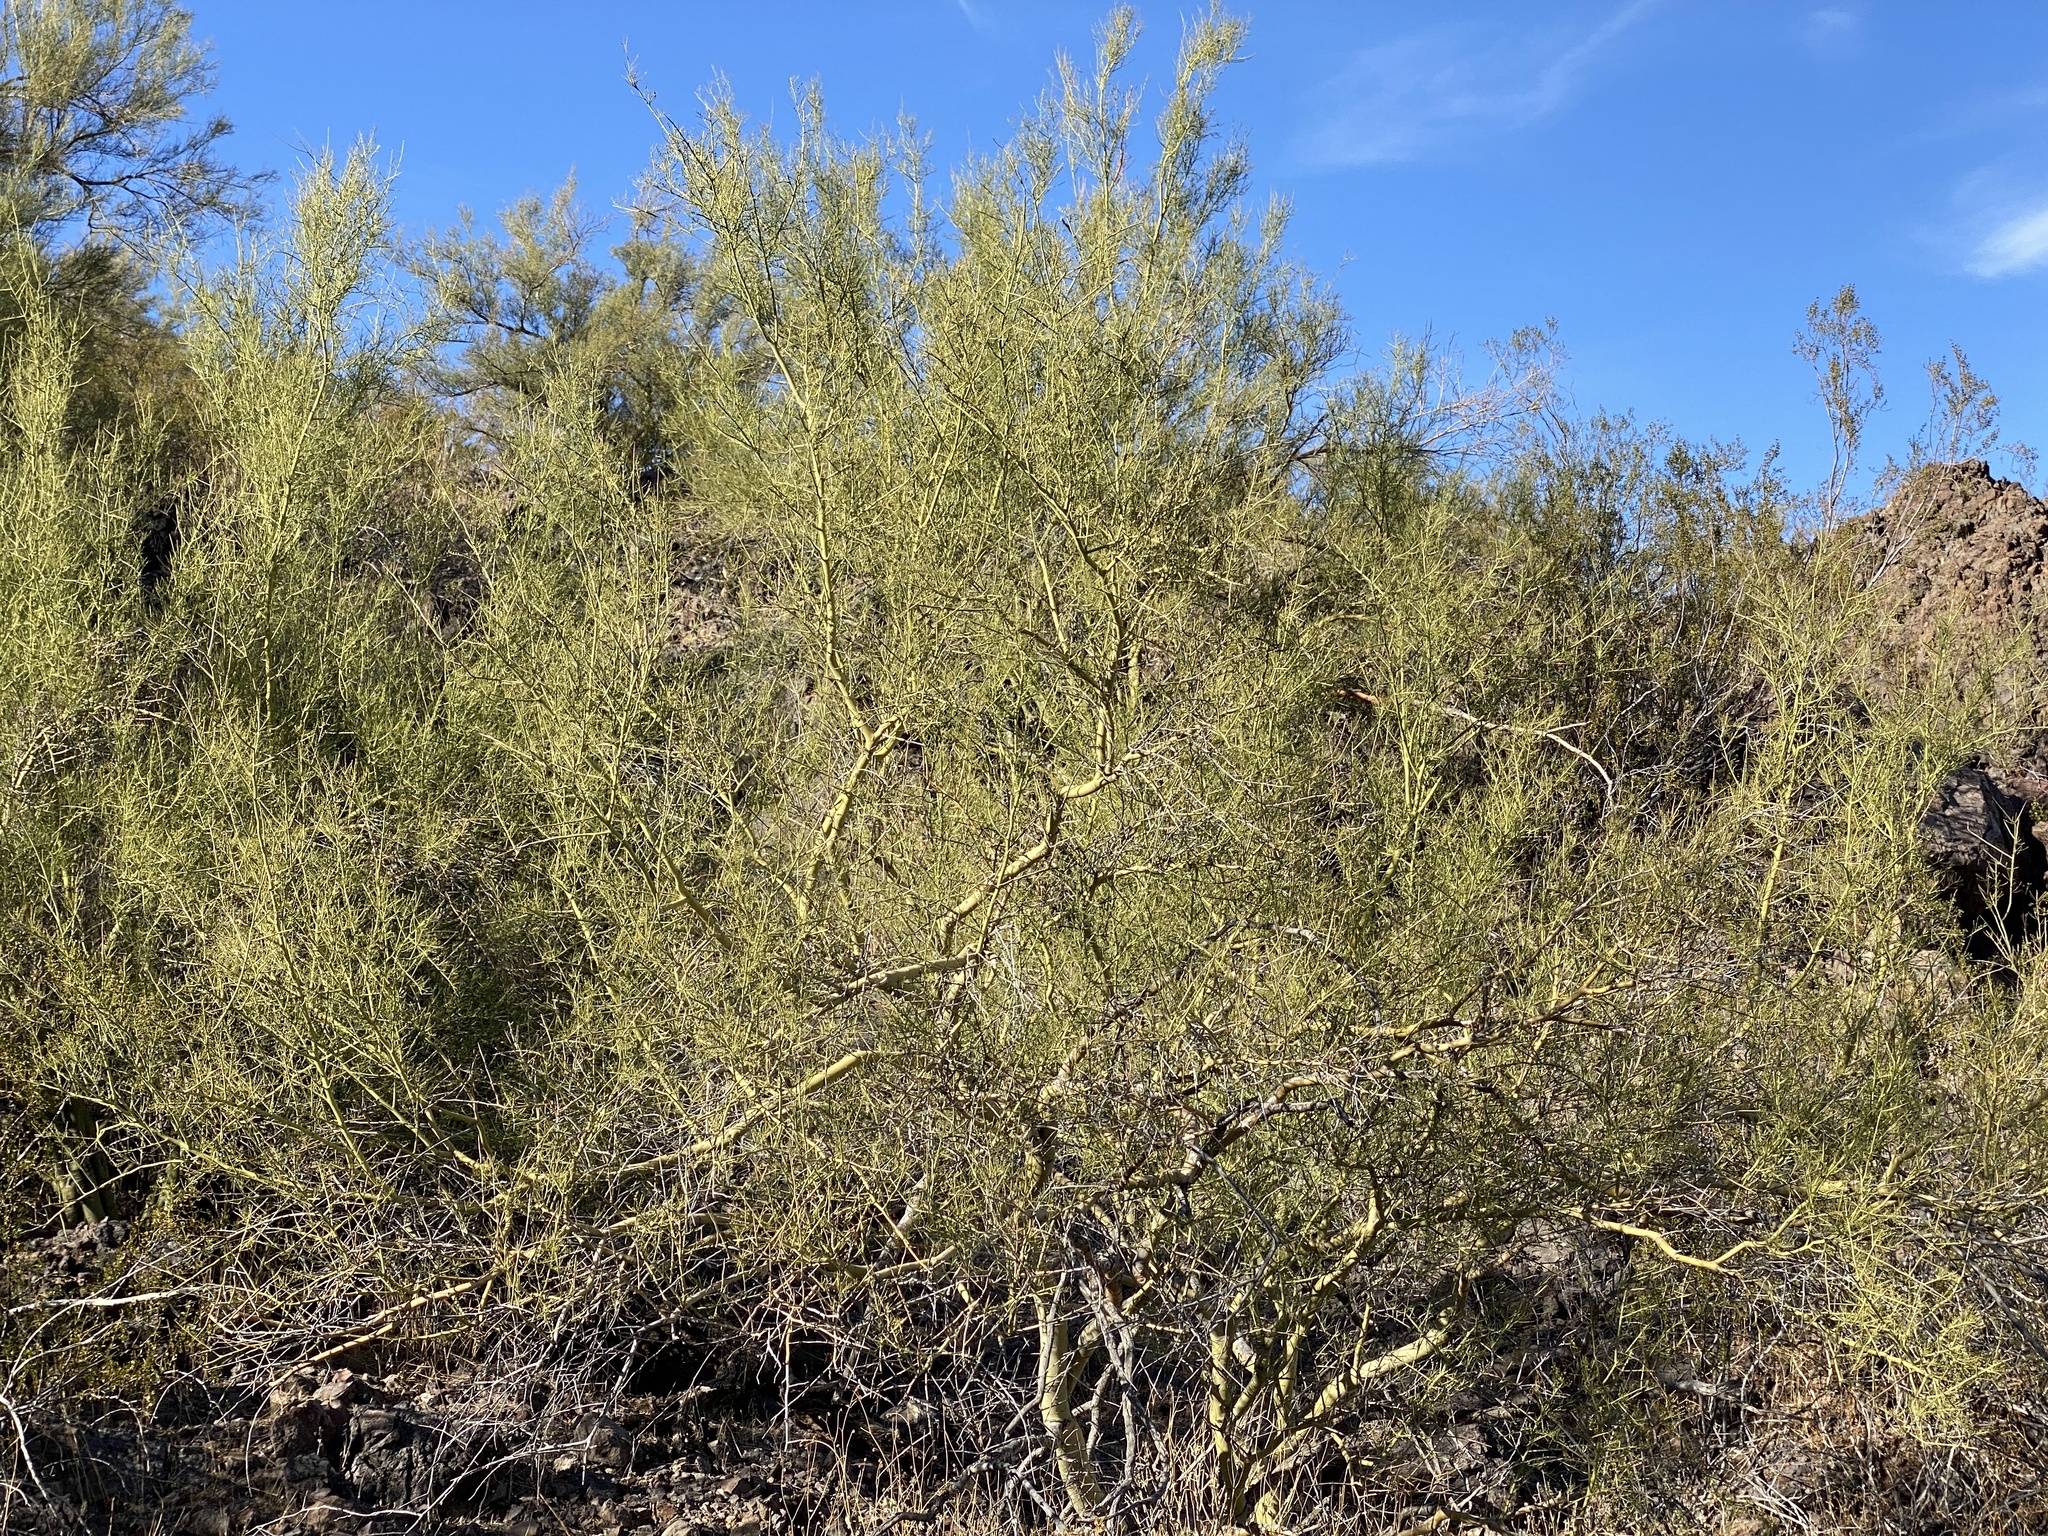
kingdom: Plantae
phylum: Tracheophyta
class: Magnoliopsida
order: Fabales
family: Fabaceae
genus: Parkinsonia
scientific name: Parkinsonia microphylla
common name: Yellow paloverde
